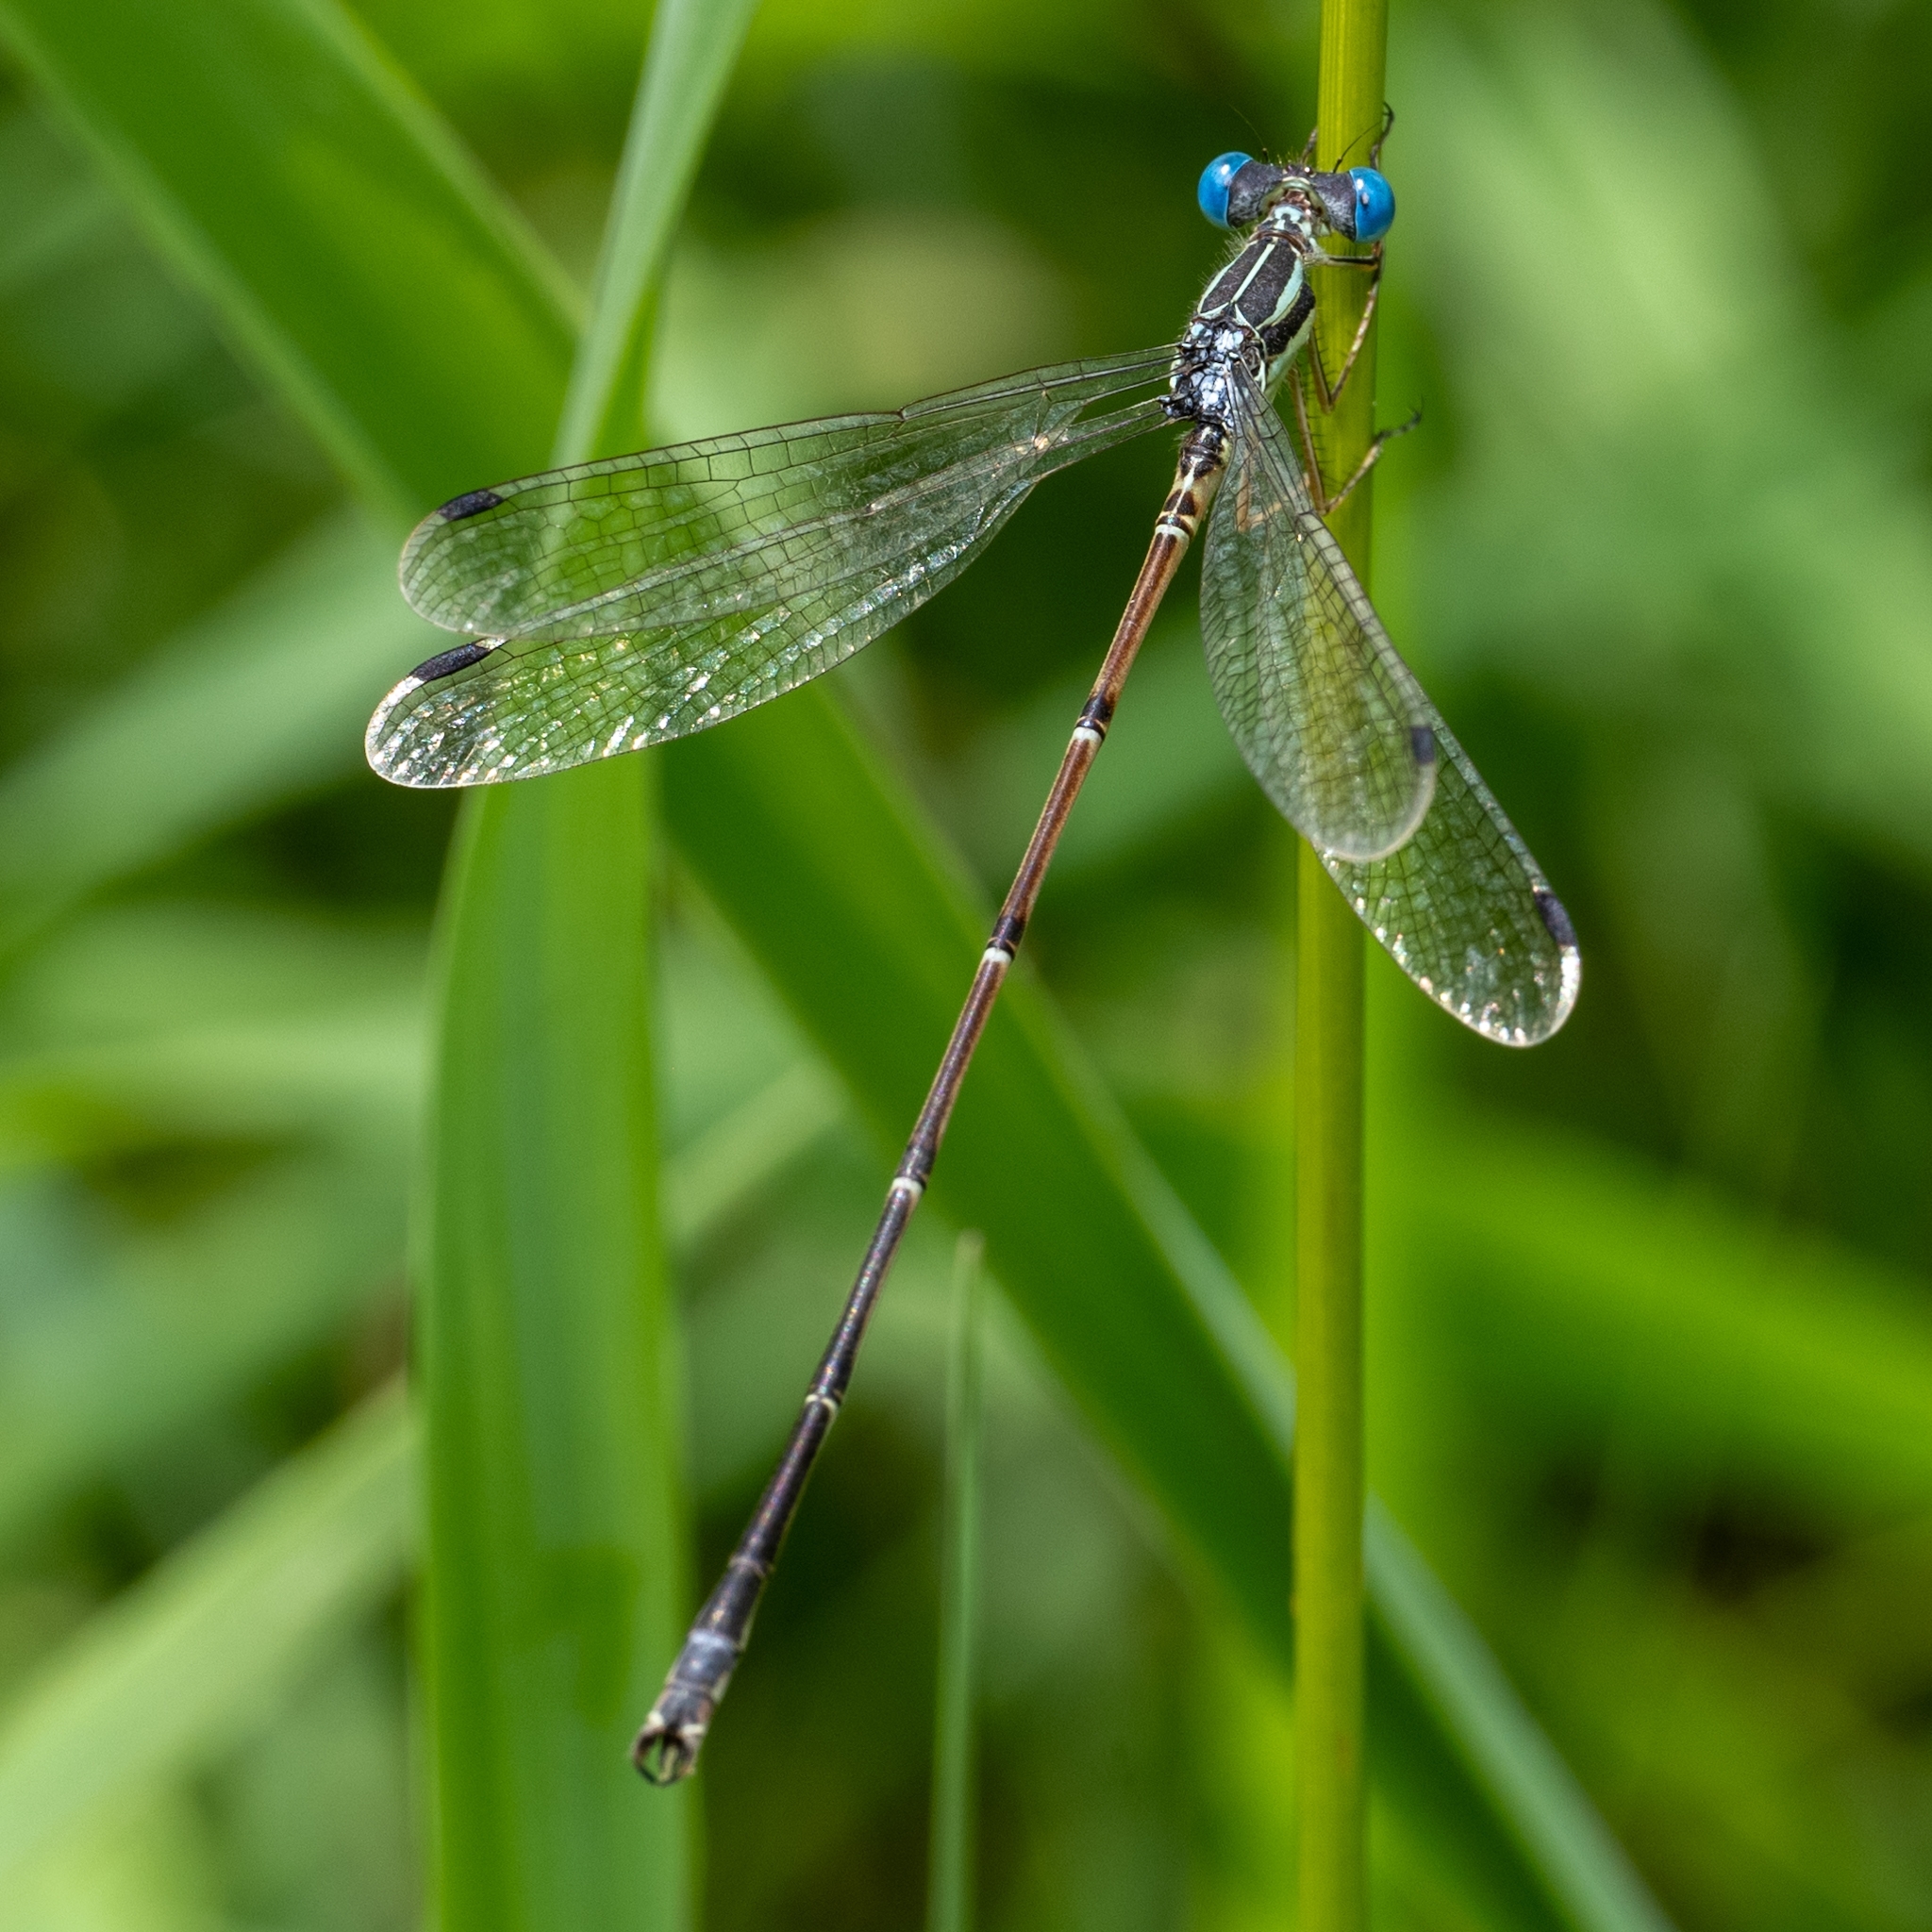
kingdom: Animalia
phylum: Arthropoda
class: Insecta
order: Odonata
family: Lestidae
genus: Lestes
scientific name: Lestes rectangularis
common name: Slender spreadwing
